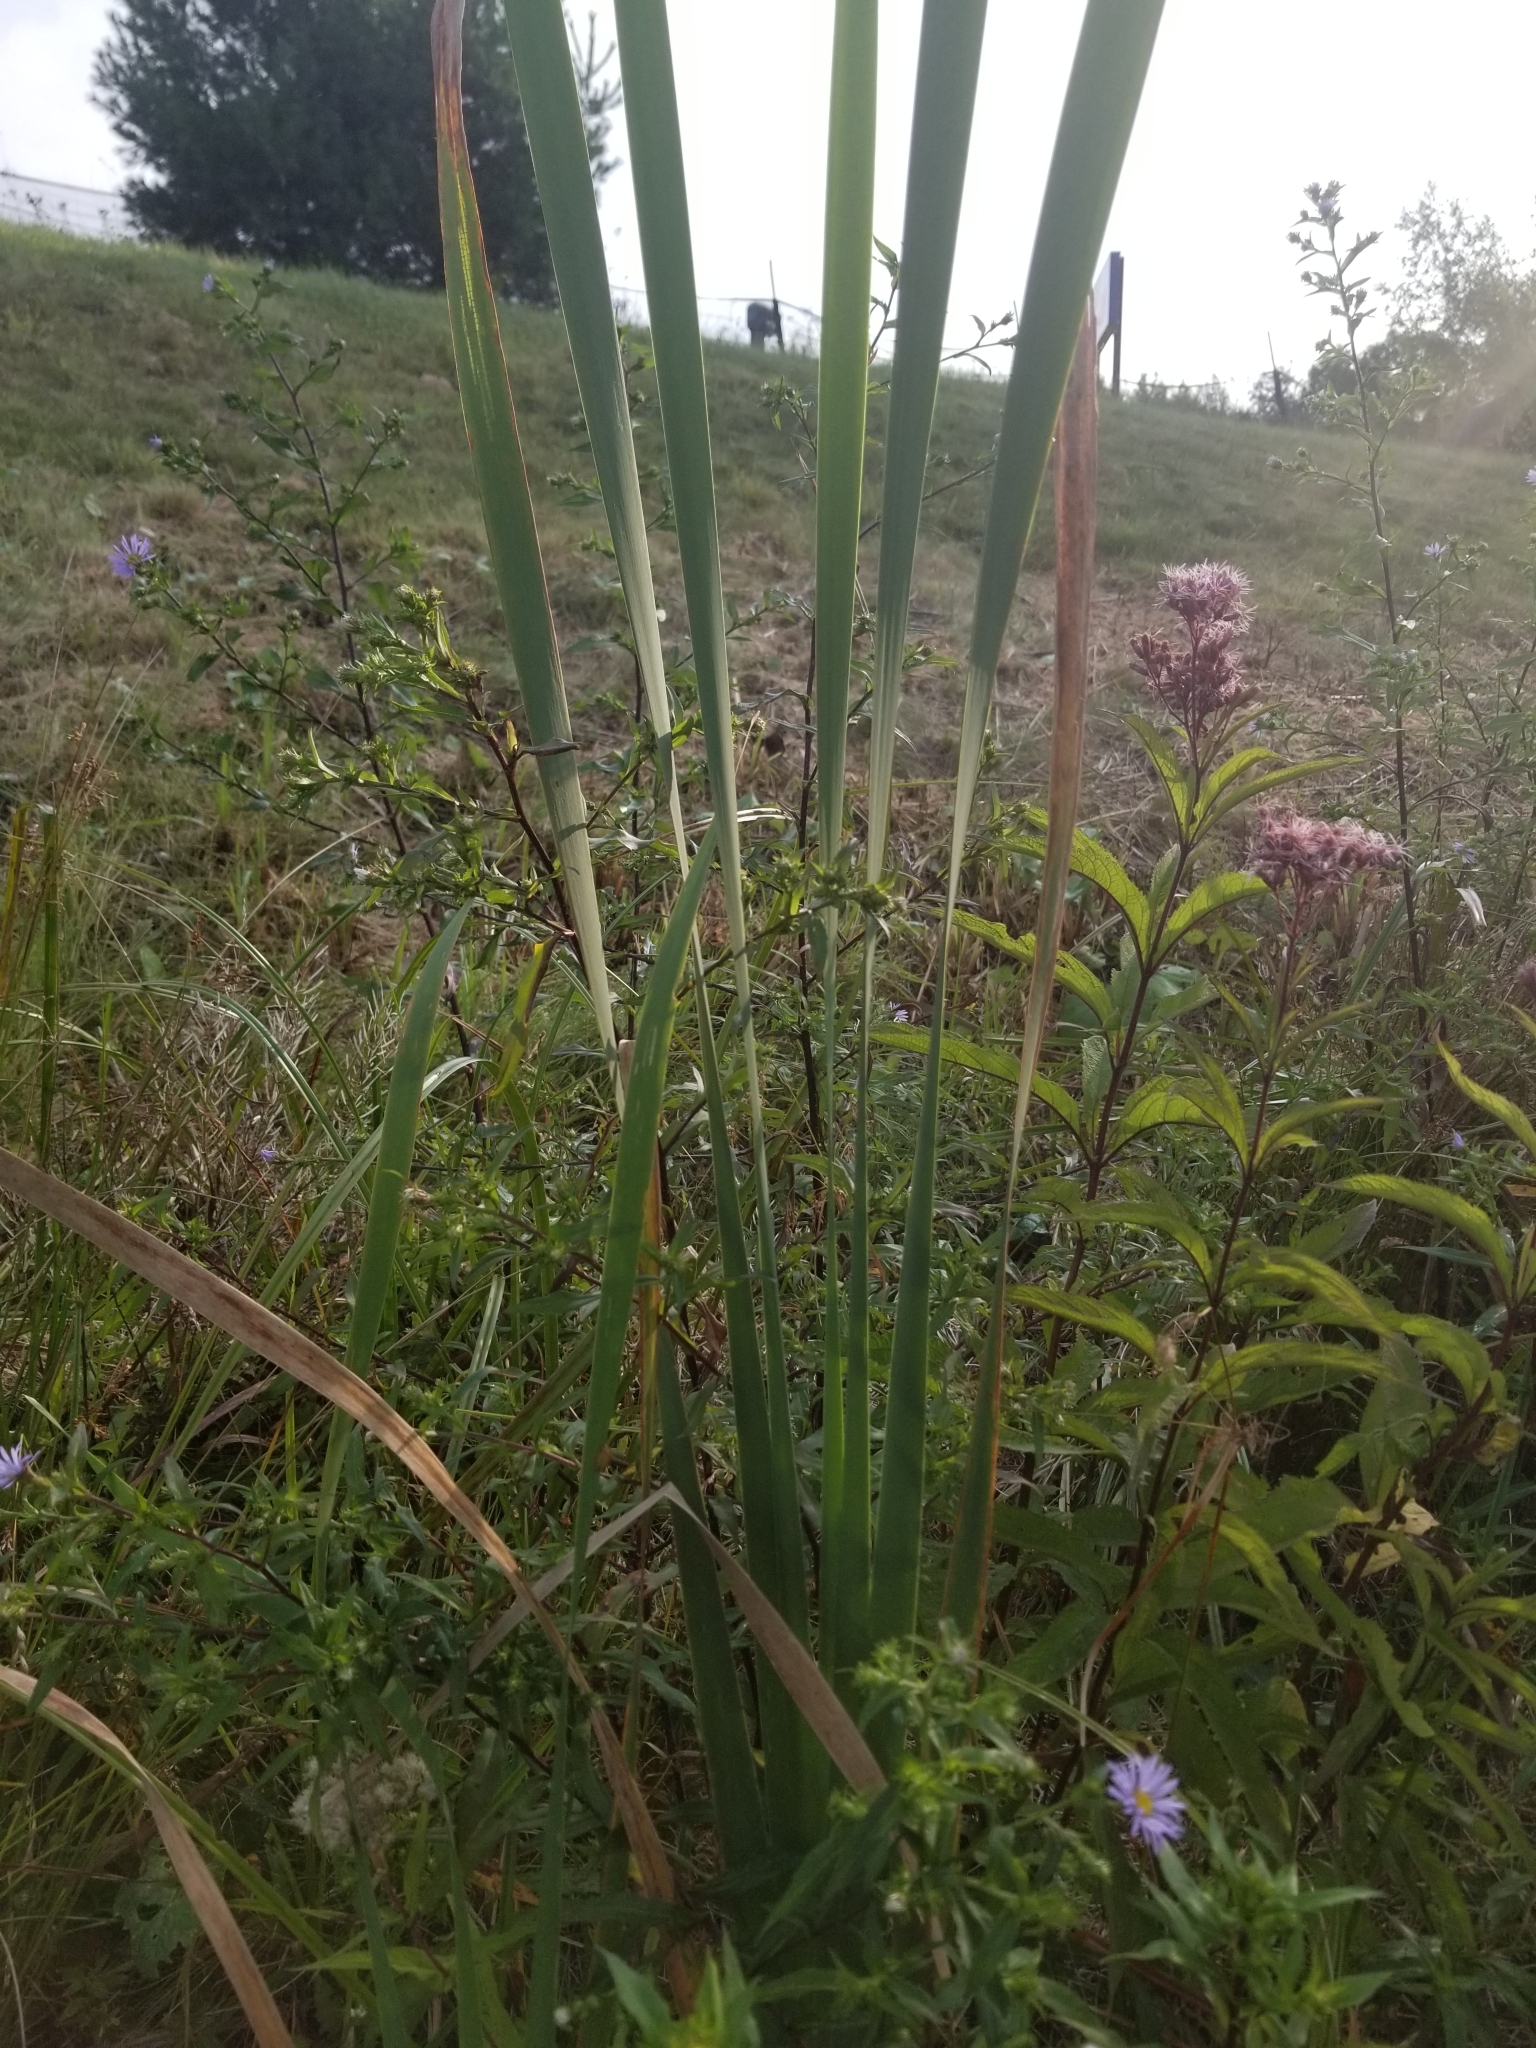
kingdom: Plantae
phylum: Tracheophyta
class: Liliopsida
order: Poales
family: Typhaceae
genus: Typha
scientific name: Typha
